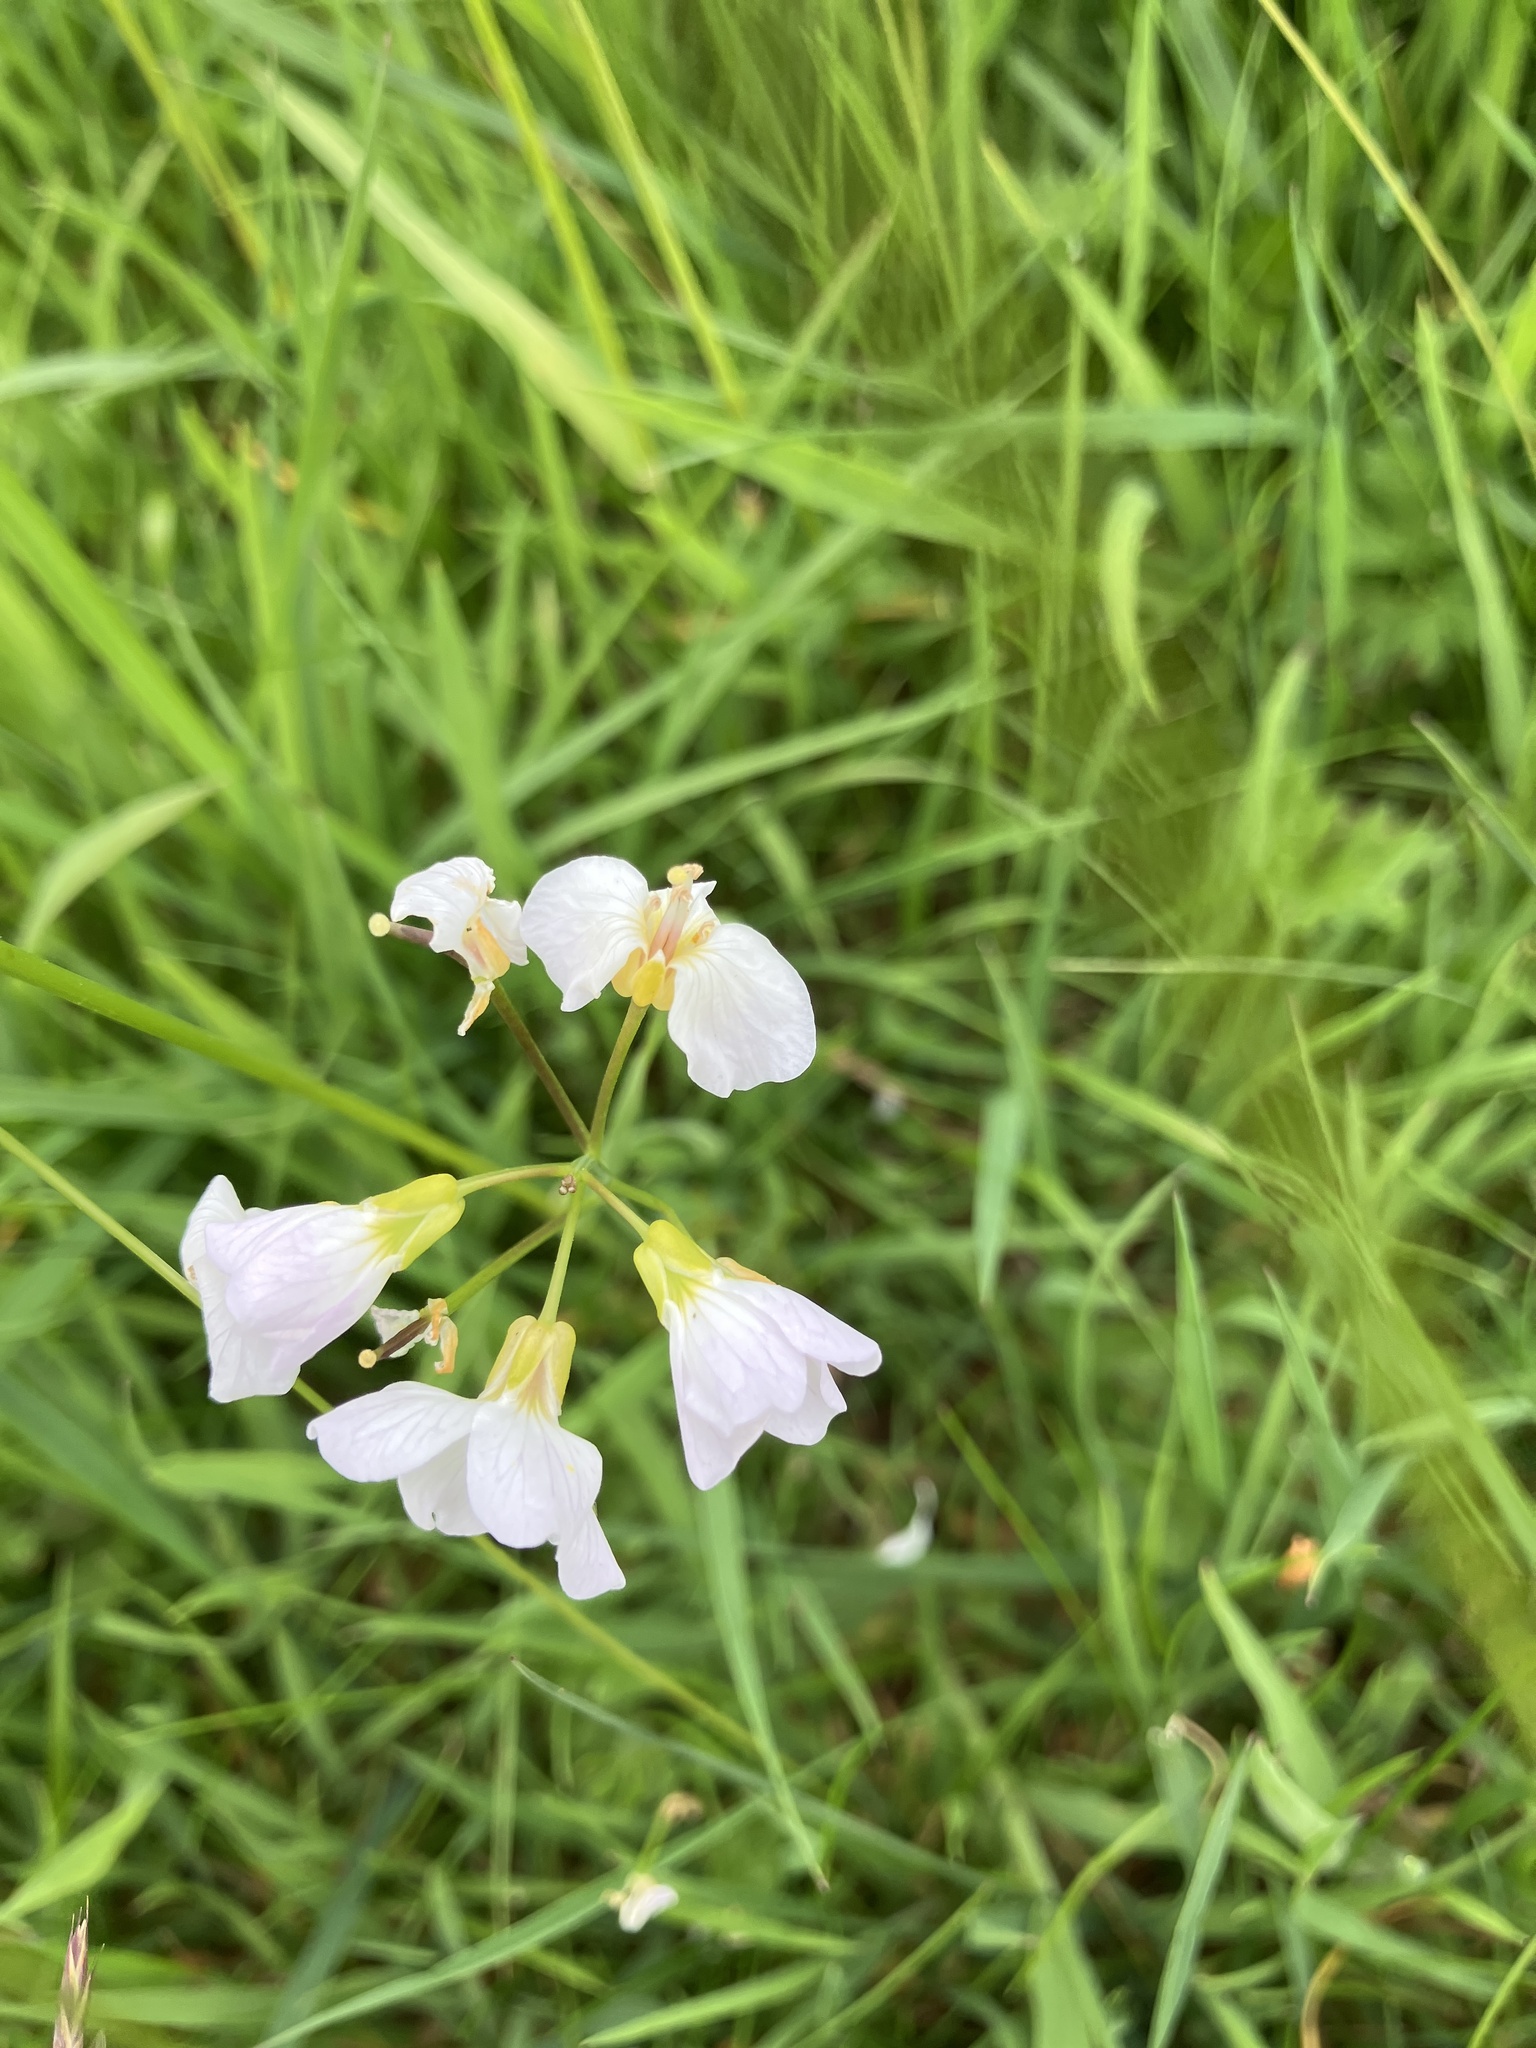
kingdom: Plantae
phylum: Tracheophyta
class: Magnoliopsida
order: Brassicales
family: Brassicaceae
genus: Cardamine
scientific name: Cardamine pratensis
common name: Cuckoo flower
